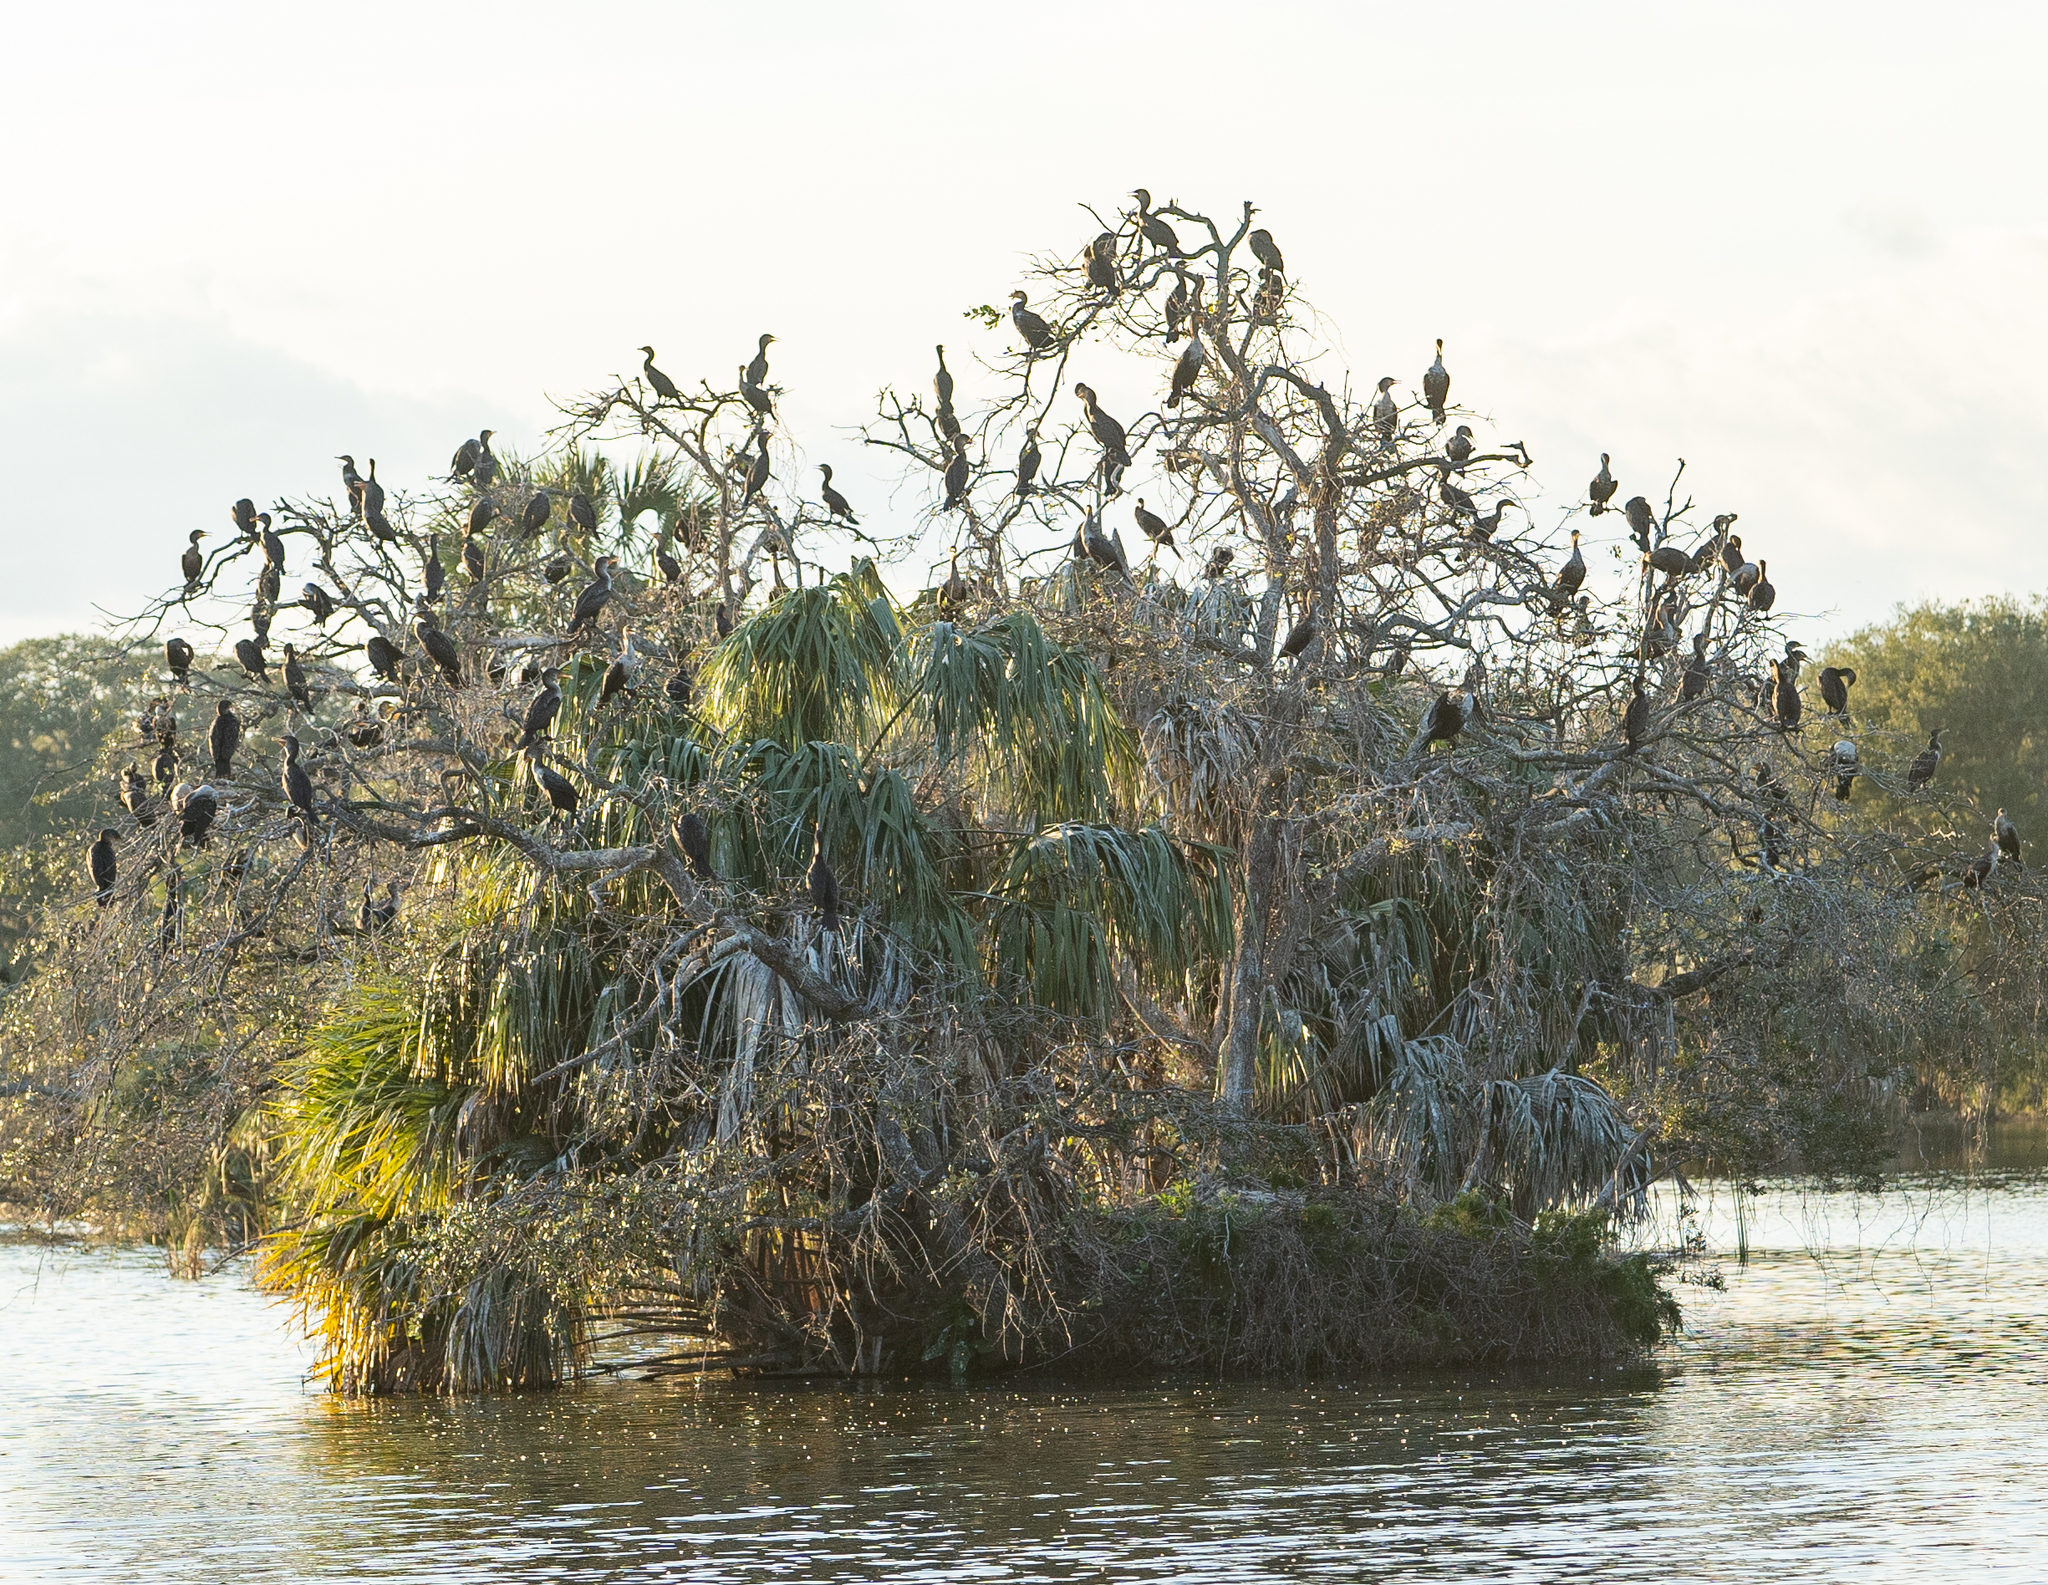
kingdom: Animalia
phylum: Chordata
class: Aves
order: Suliformes
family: Phalacrocoracidae
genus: Phalacrocorax
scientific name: Phalacrocorax auritus
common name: Double-crested cormorant
